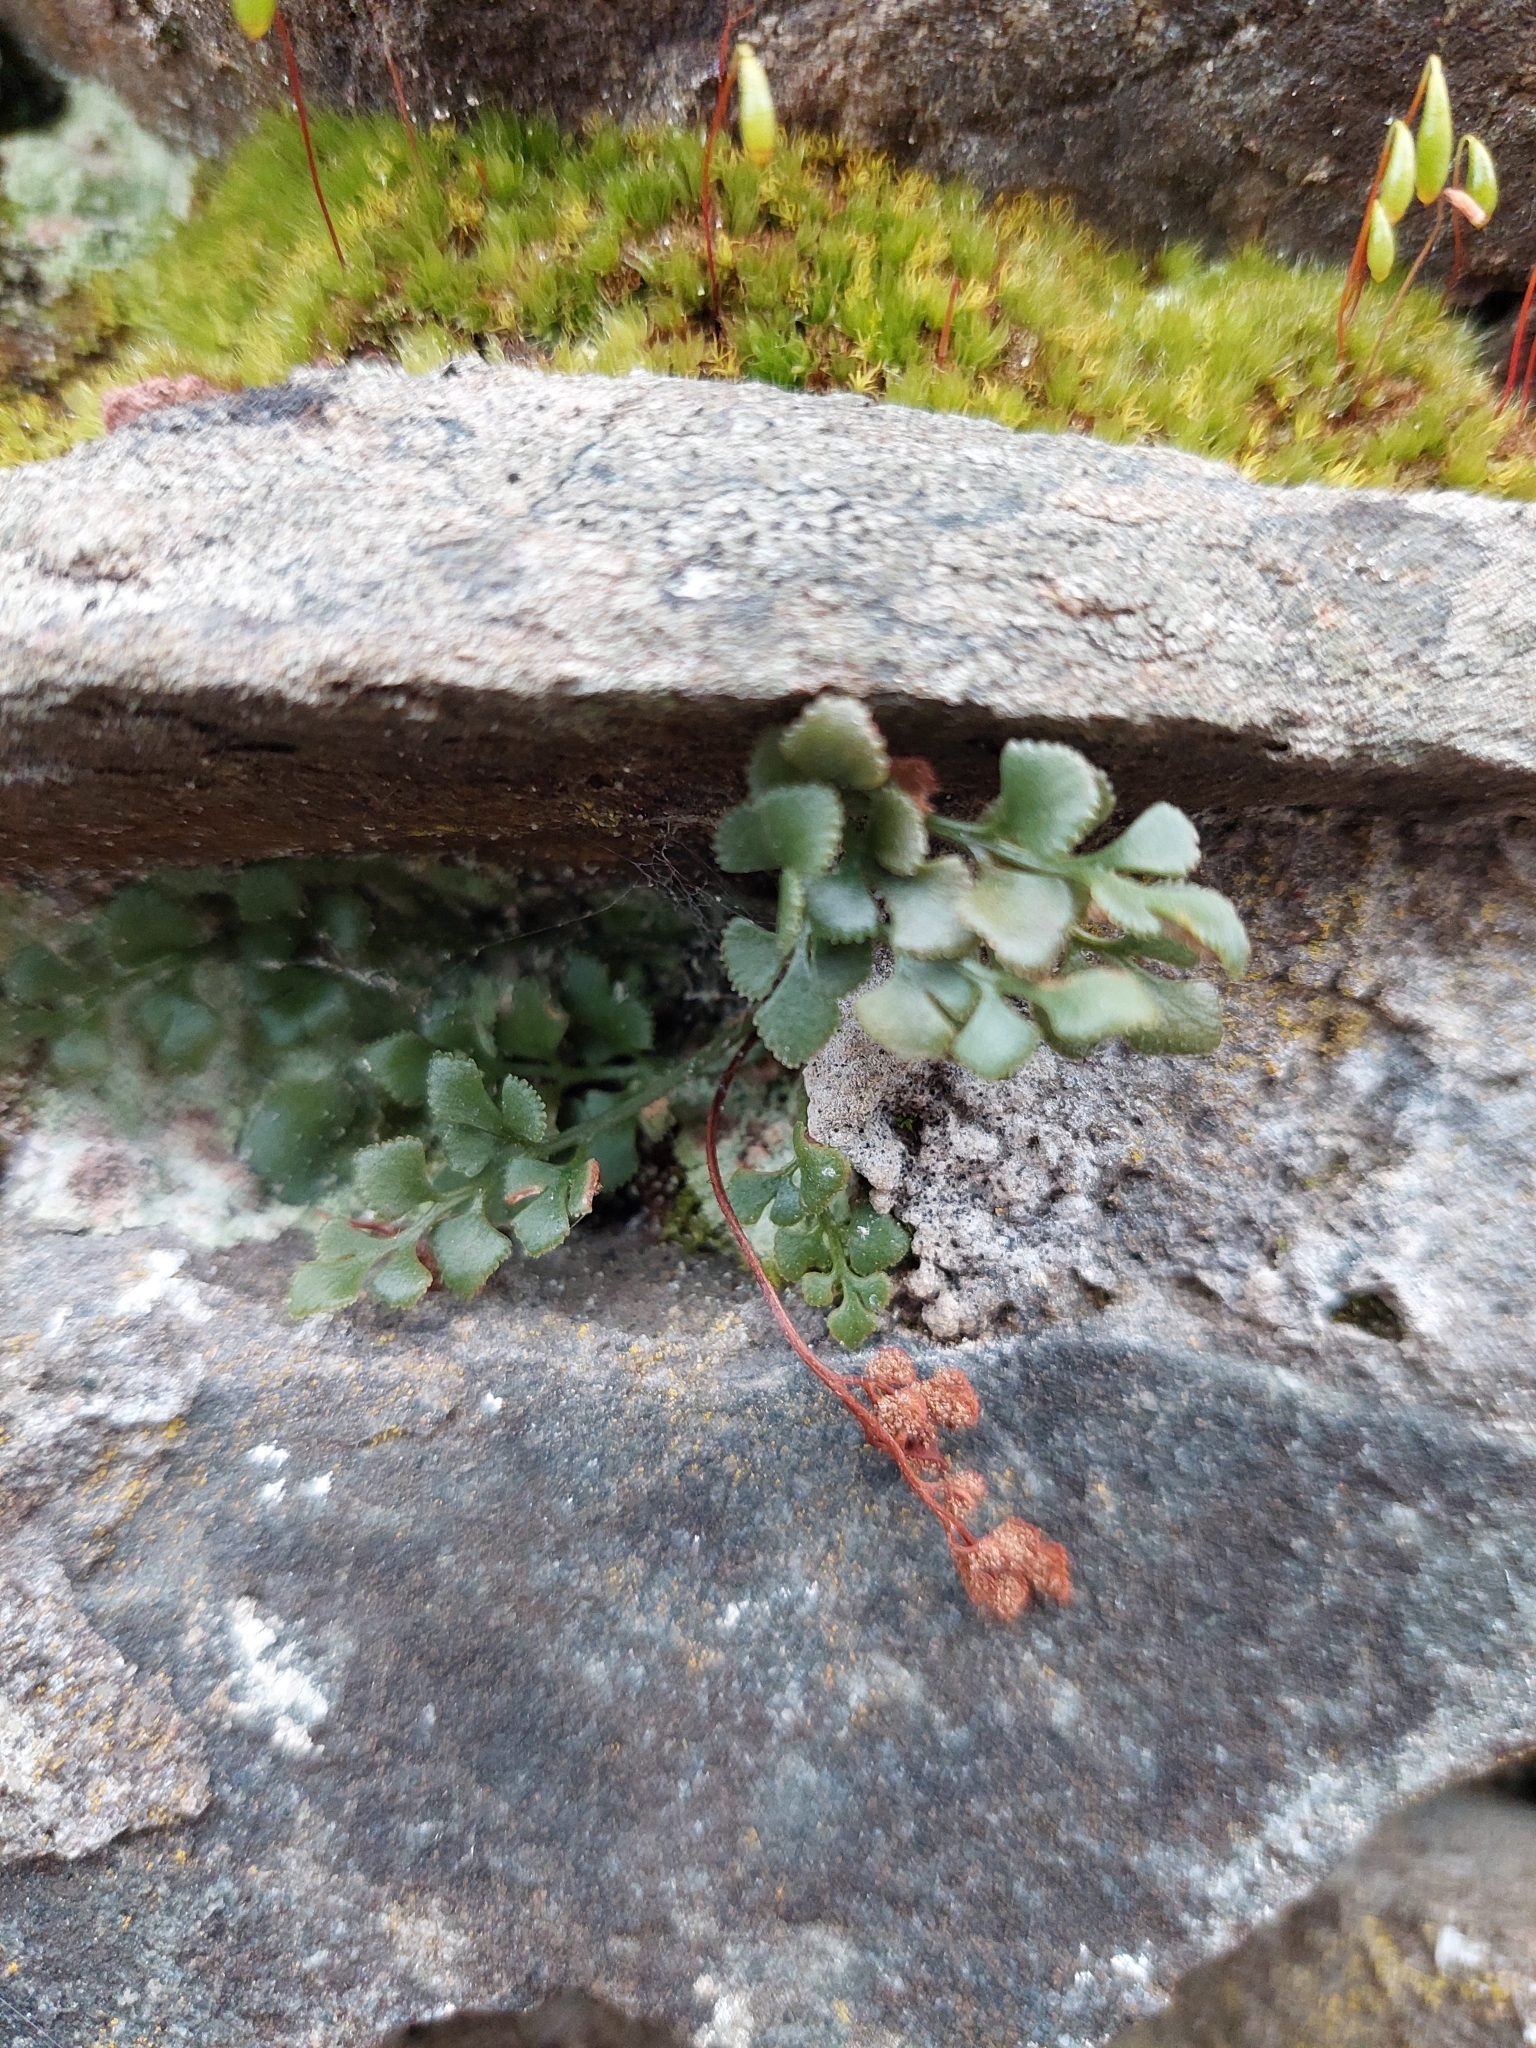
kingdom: Plantae
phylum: Tracheophyta
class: Polypodiopsida
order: Polypodiales
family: Aspleniaceae
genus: Asplenium
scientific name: Asplenium ruta-muraria
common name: Wall-rue
